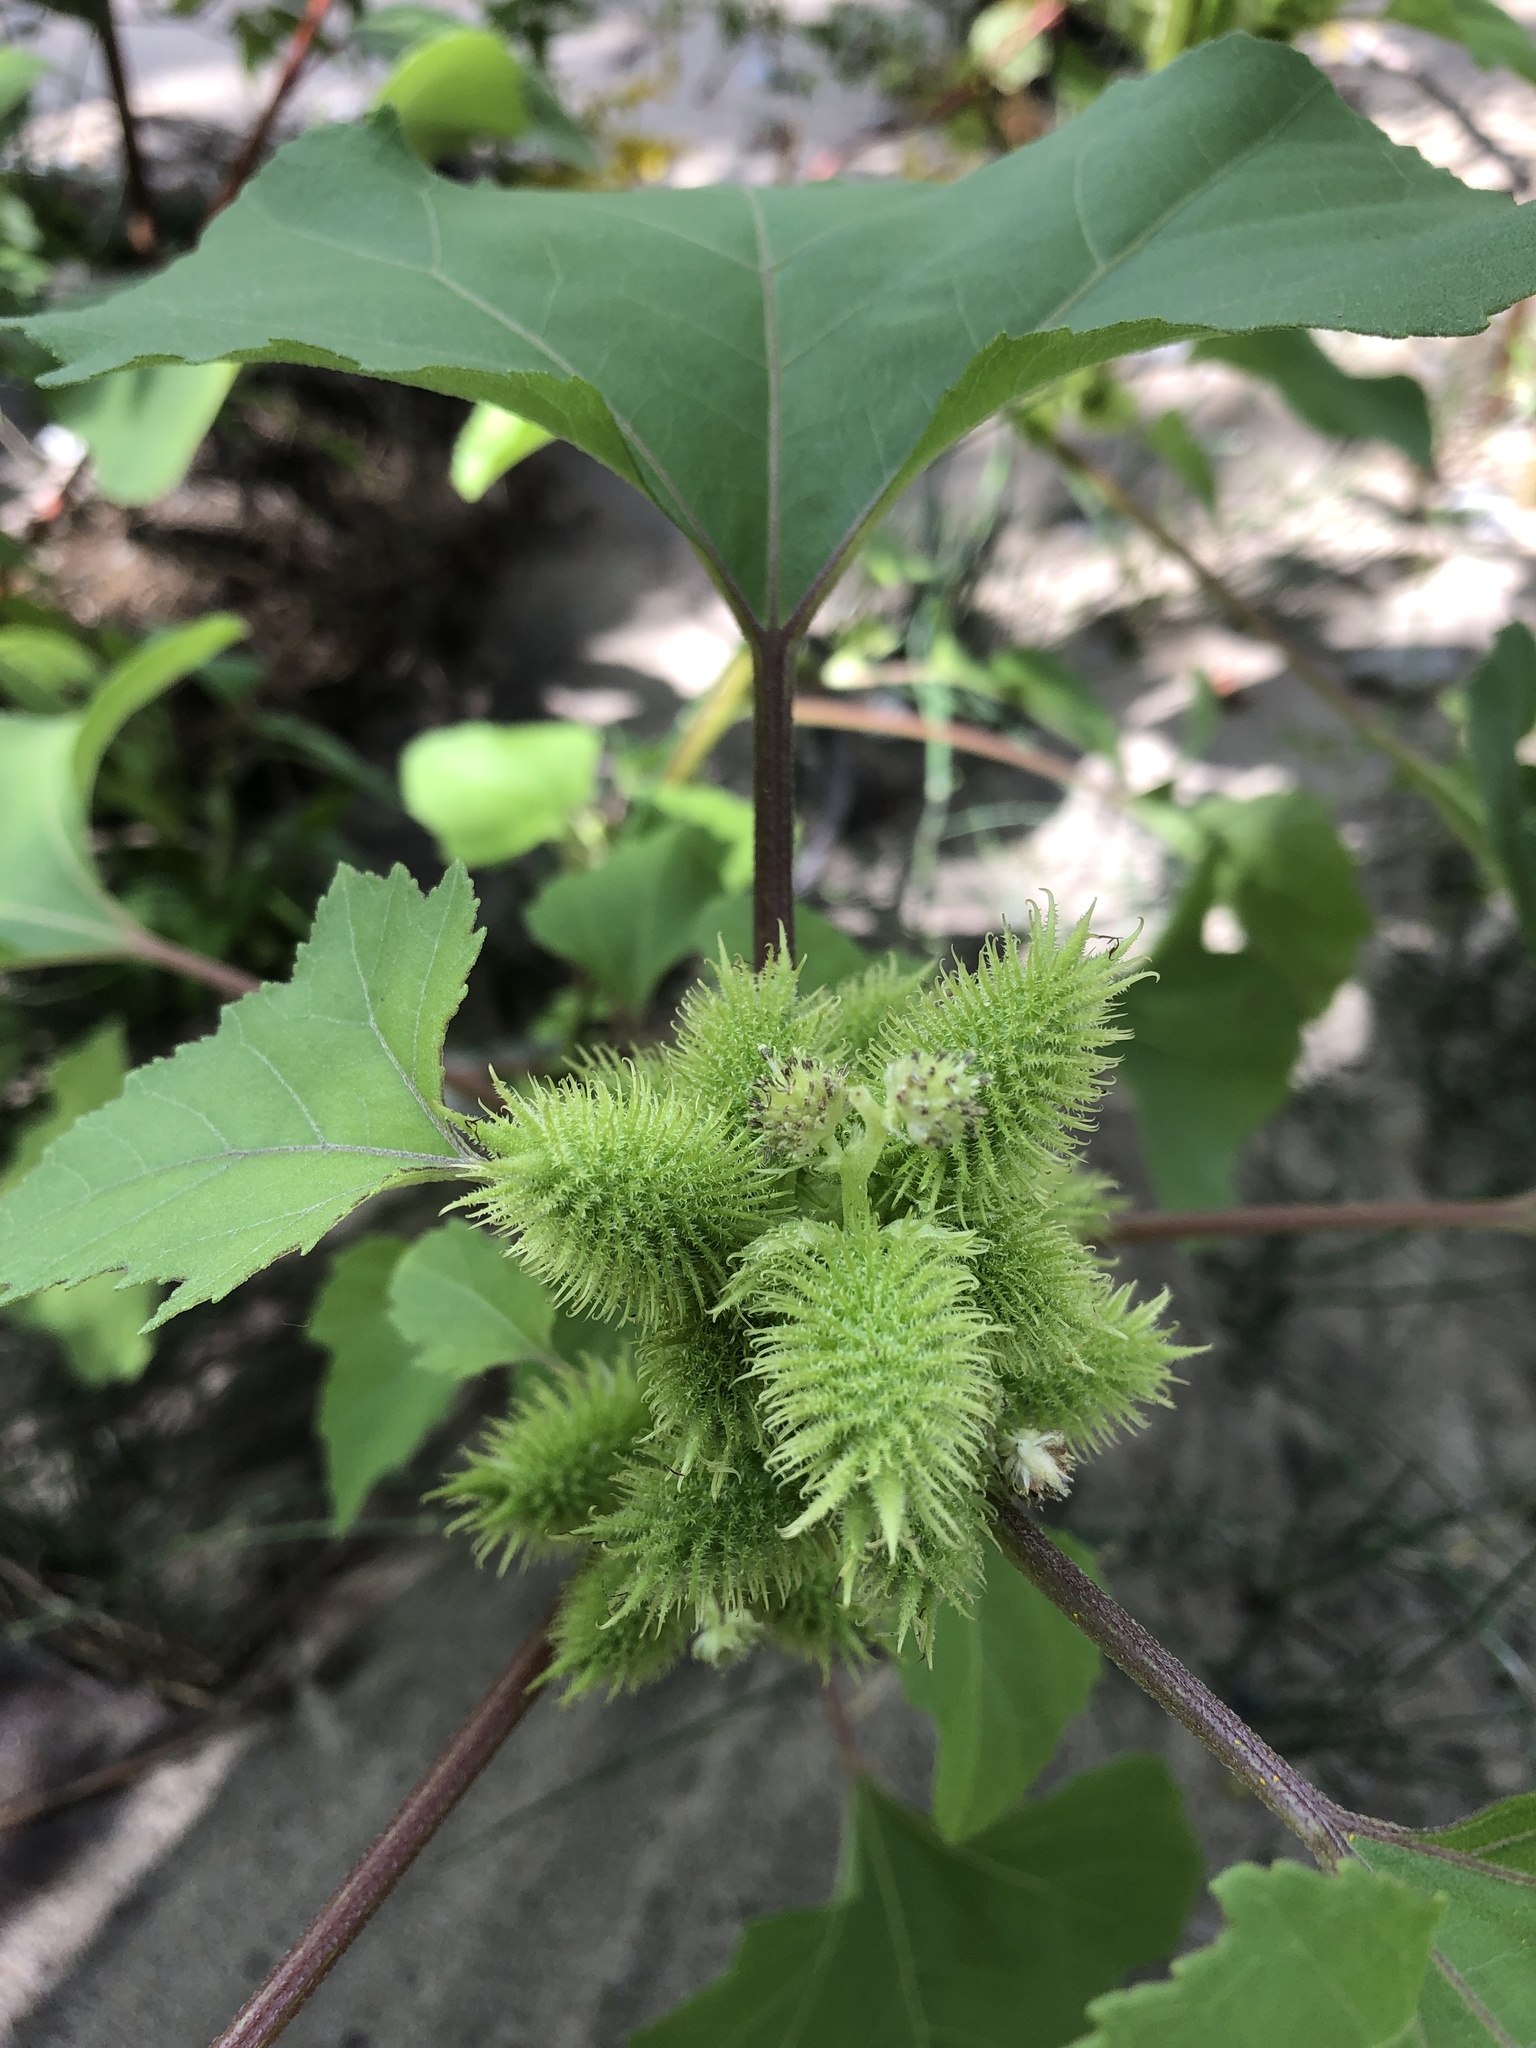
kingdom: Plantae
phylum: Tracheophyta
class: Magnoliopsida
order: Asterales
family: Asteraceae
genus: Xanthium
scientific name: Xanthium strumarium
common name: Rough cocklebur
